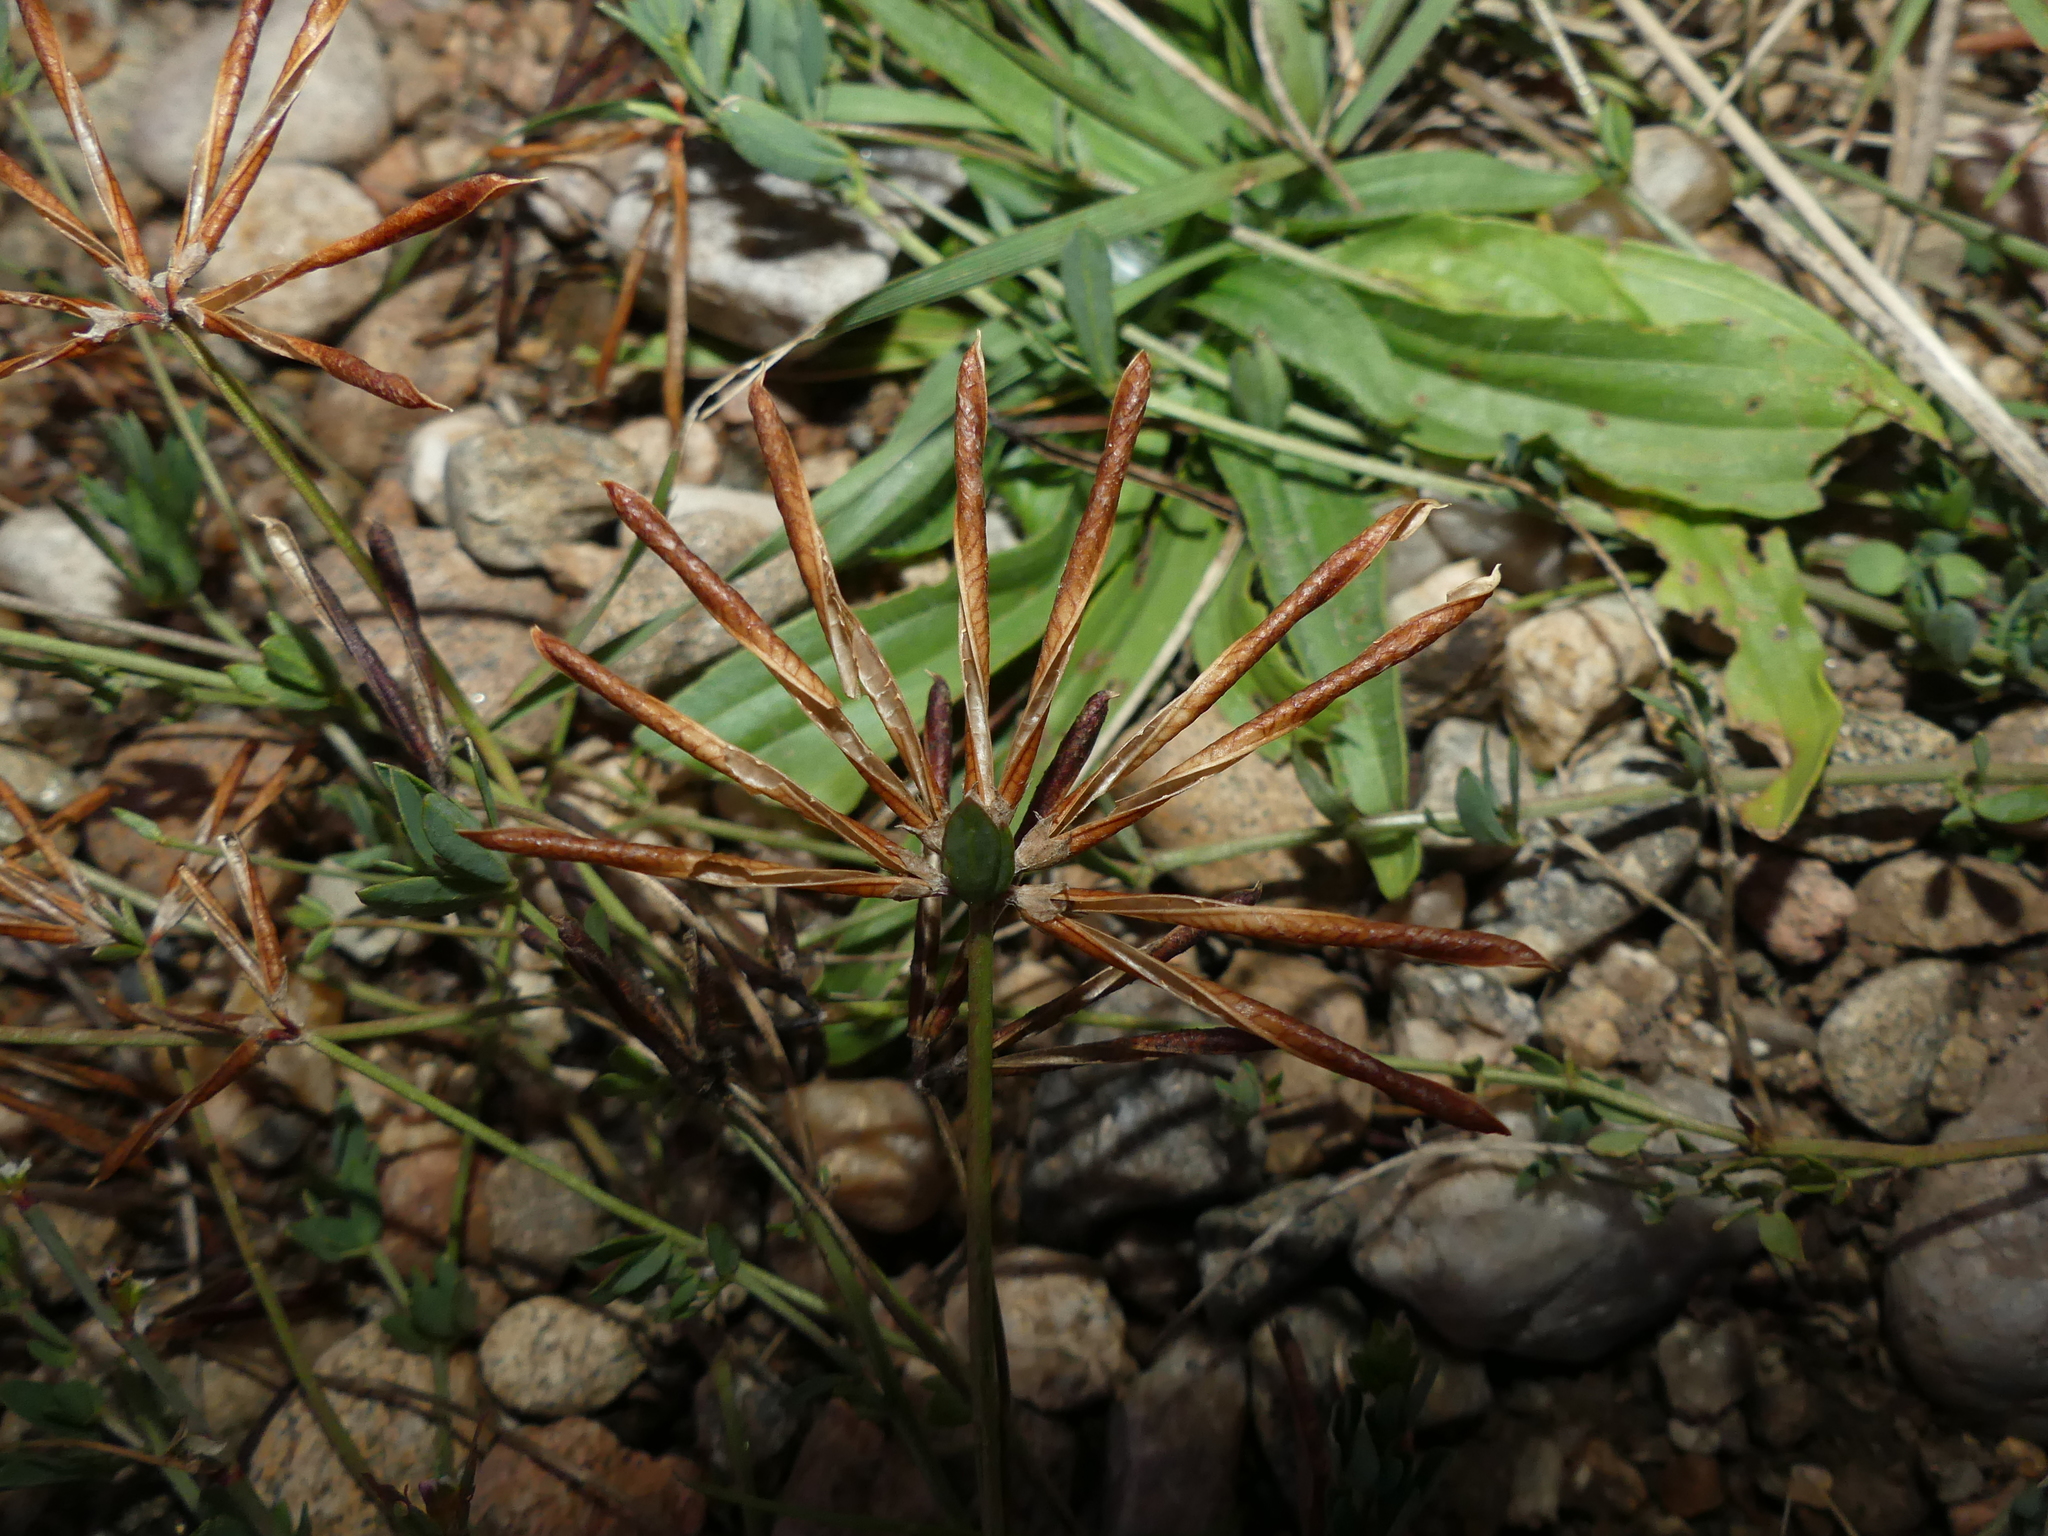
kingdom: Plantae
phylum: Tracheophyta
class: Magnoliopsida
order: Fabales
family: Fabaceae
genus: Lotus
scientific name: Lotus corniculatus
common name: Common bird's-foot-trefoil
